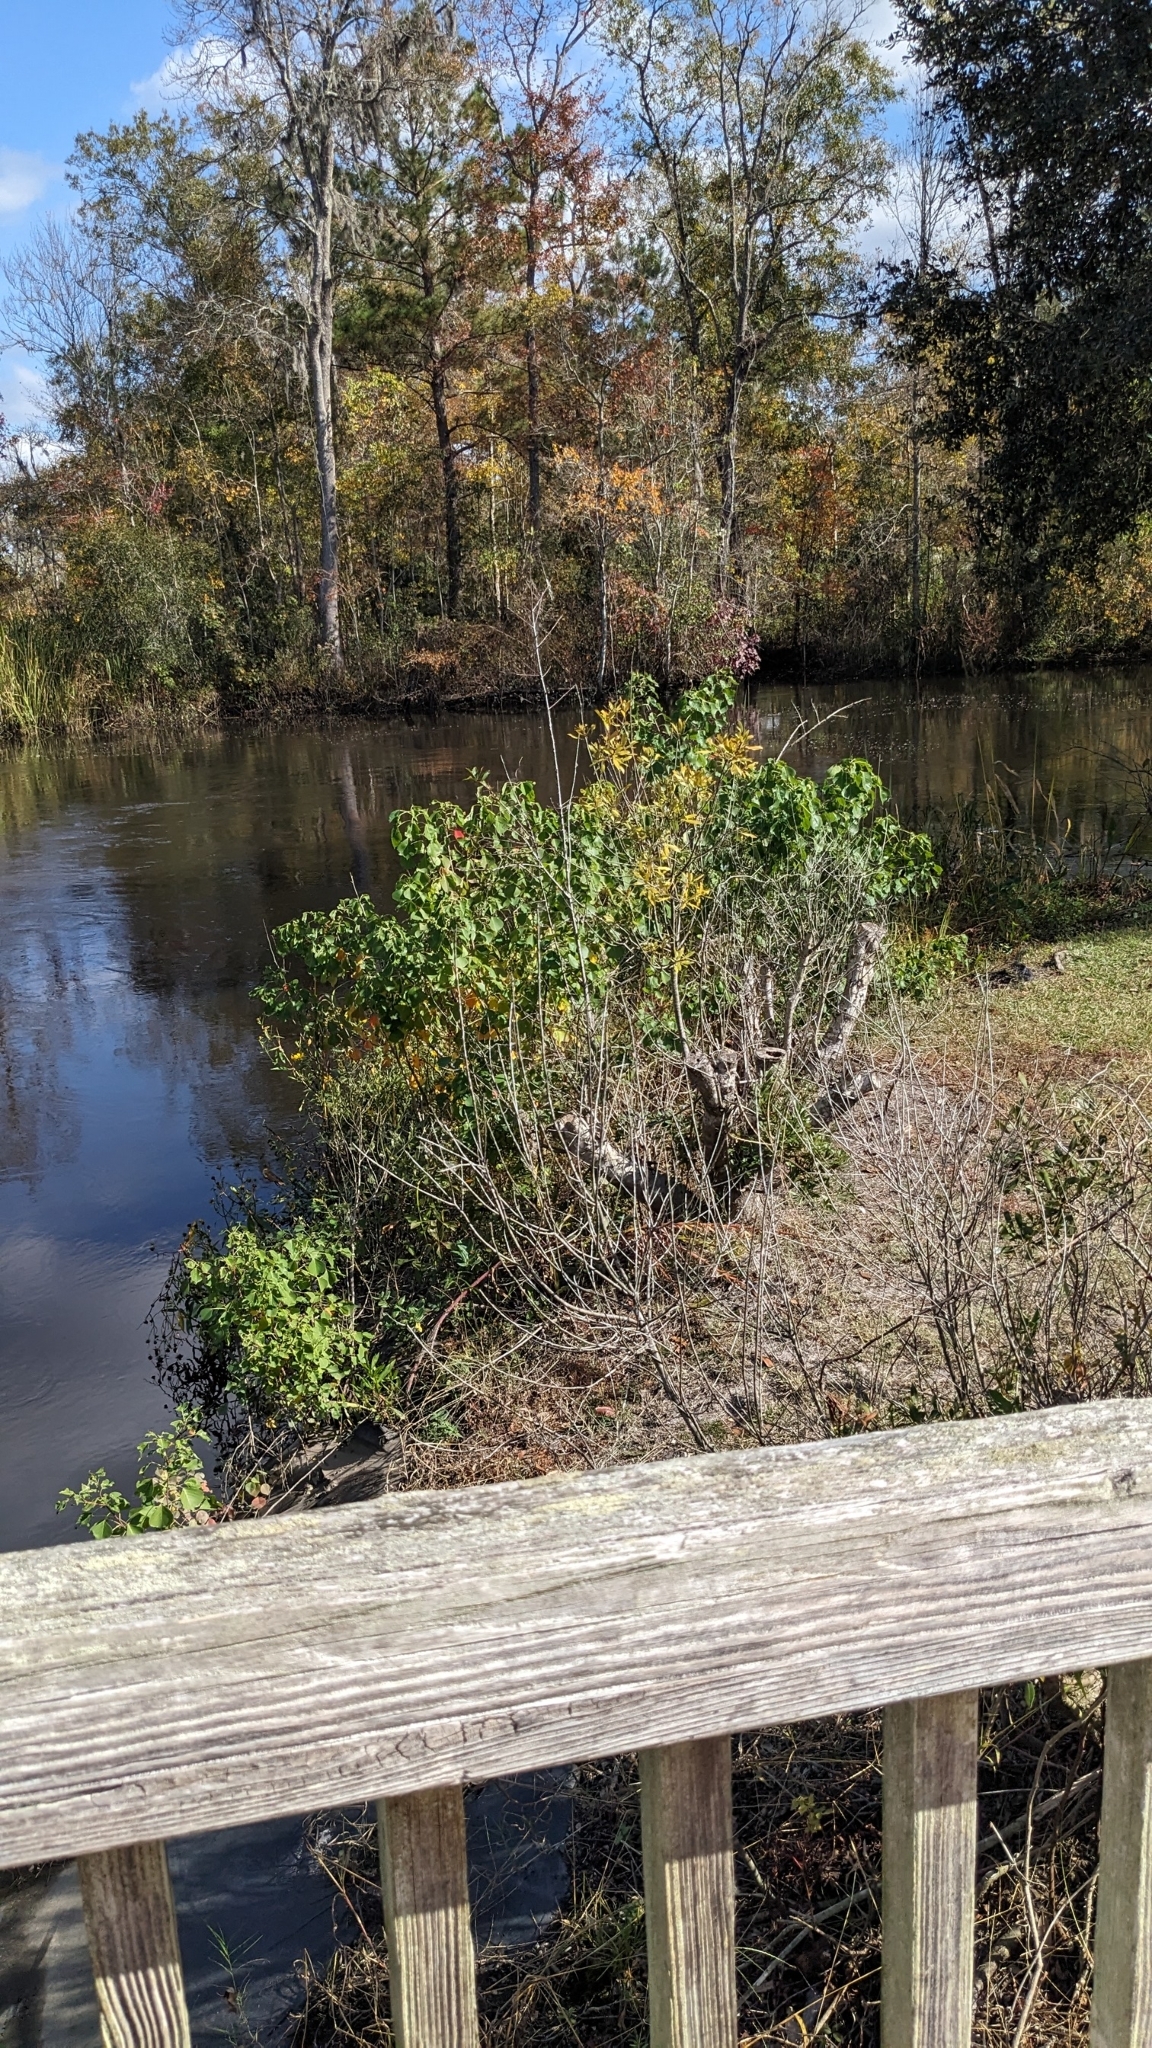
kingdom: Plantae
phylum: Tracheophyta
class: Magnoliopsida
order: Malpighiales
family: Euphorbiaceae
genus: Triadica
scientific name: Triadica sebifera
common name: Chinese tallow
